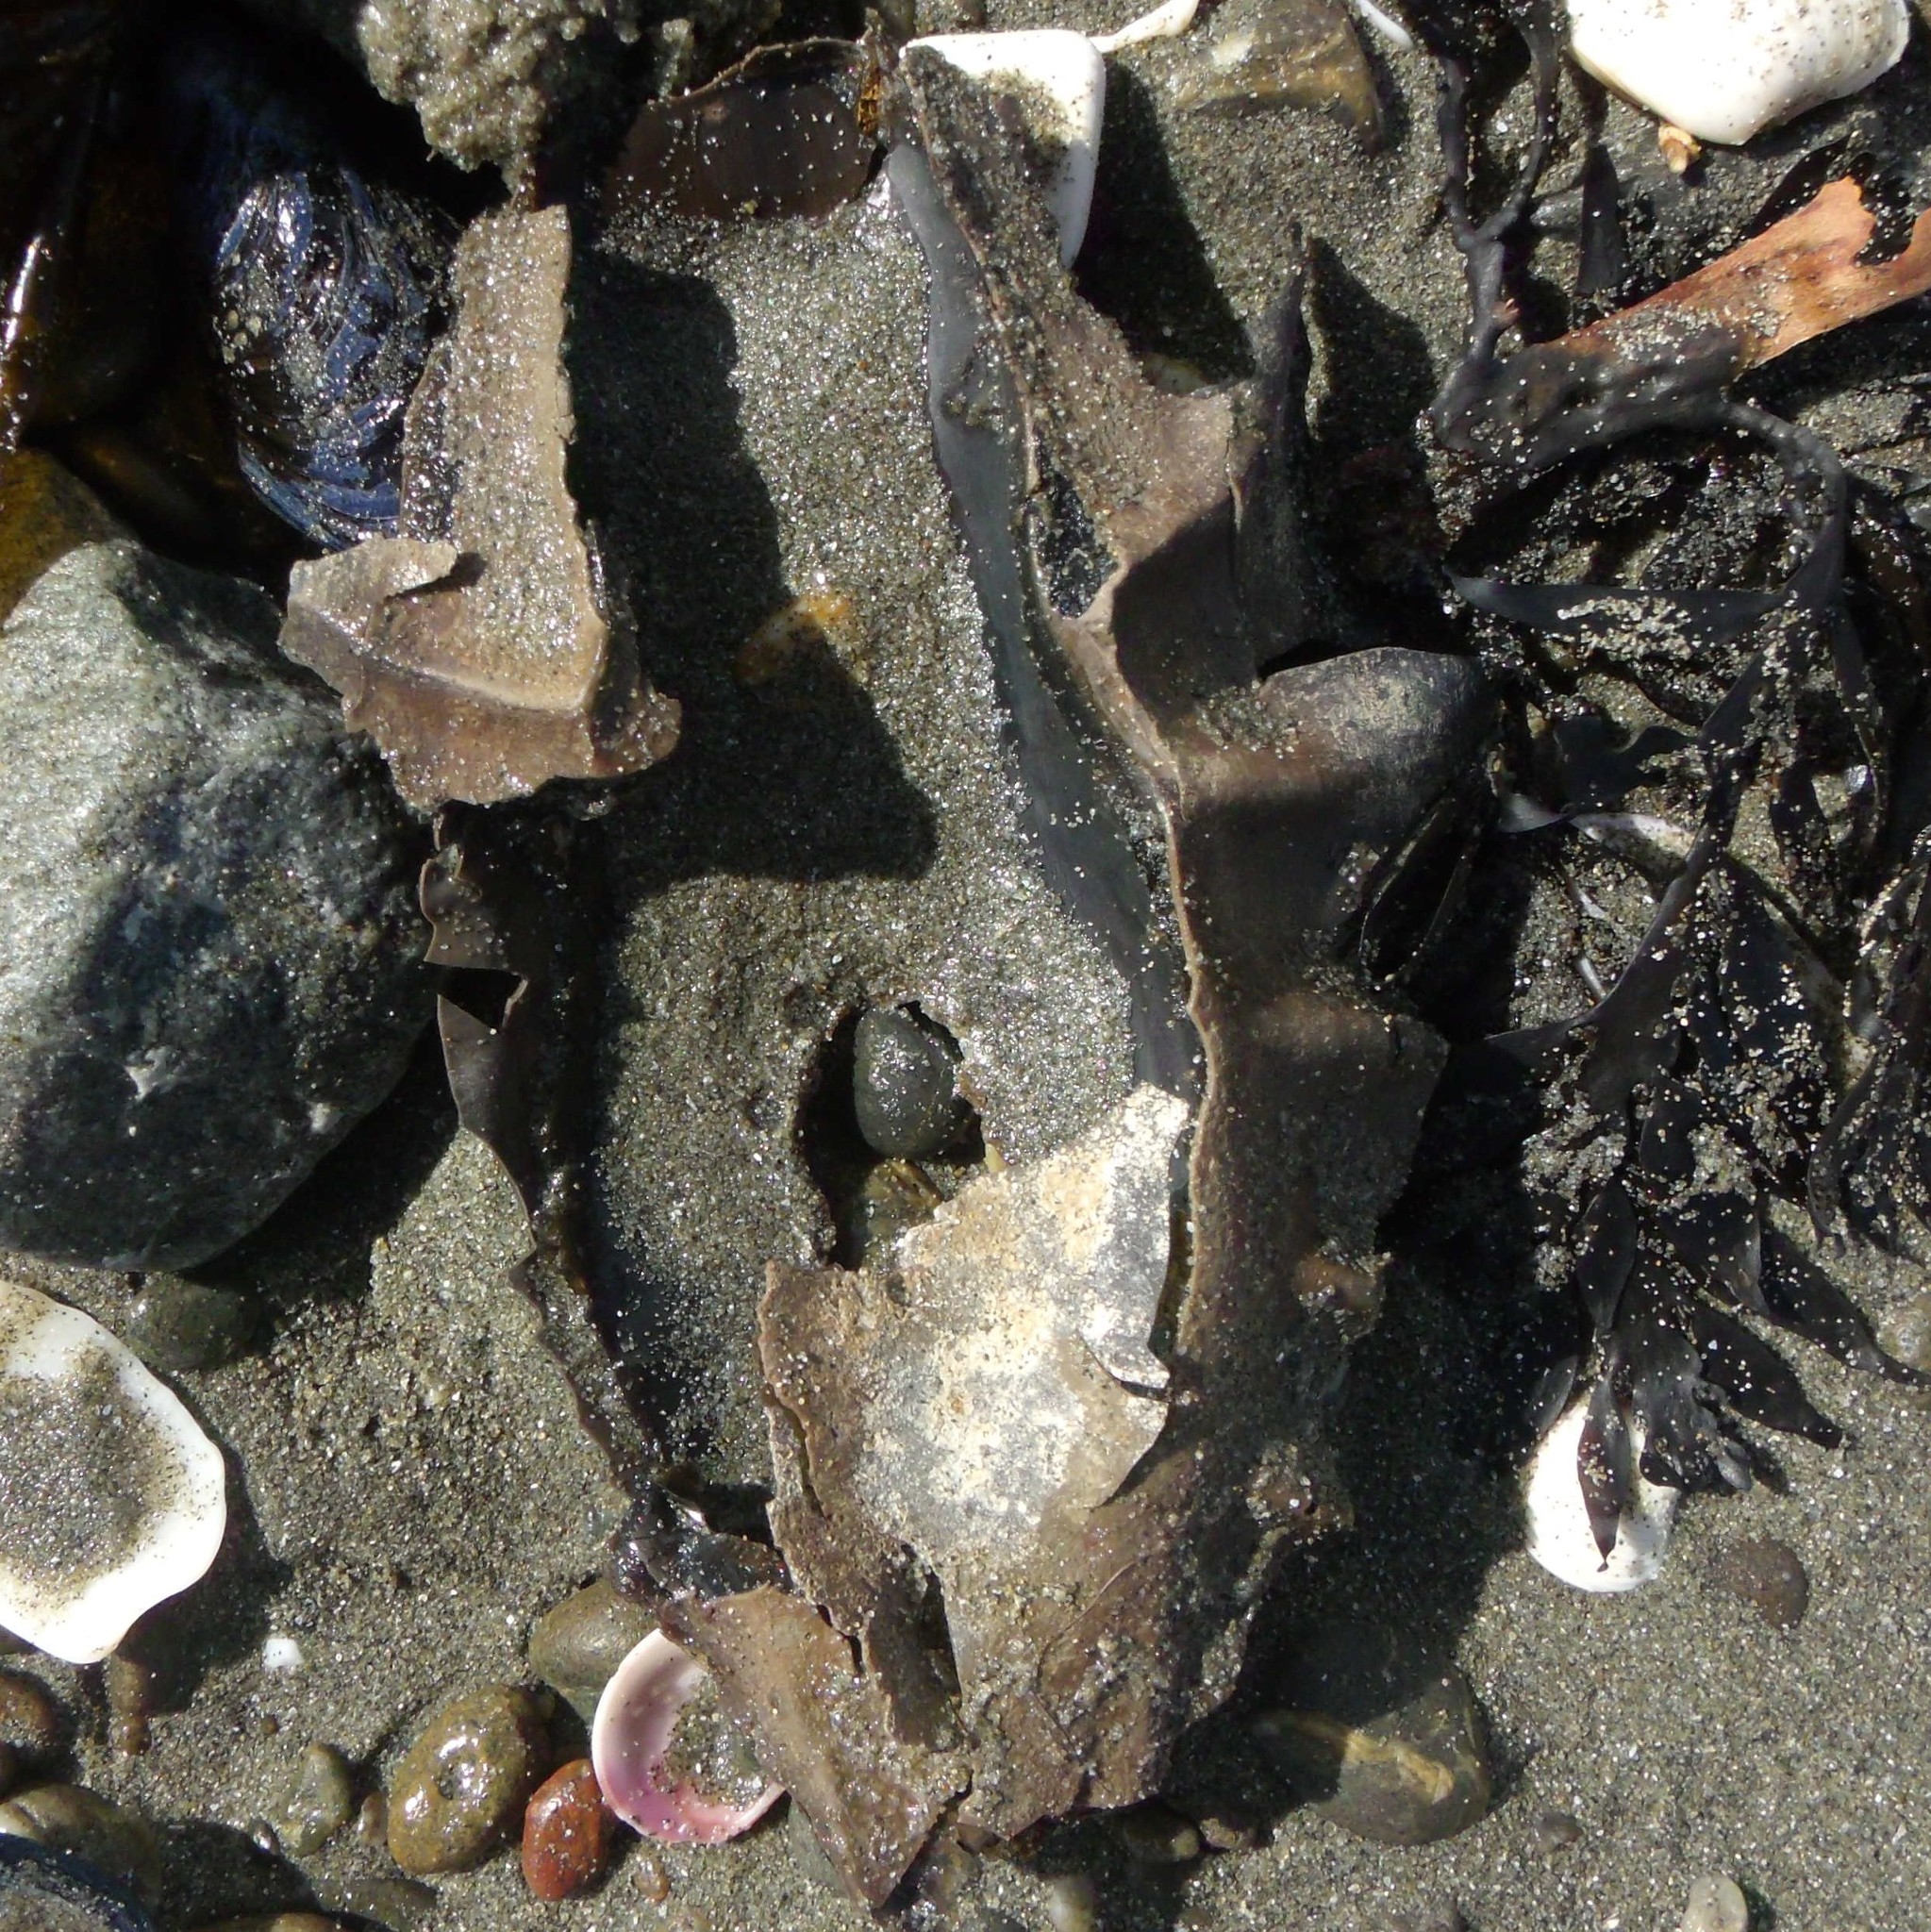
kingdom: Animalia
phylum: Chordata
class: Holocephali
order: Chimaeriformes
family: Callorhinchidae
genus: Callorhinchus
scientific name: Callorhinchus milii
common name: Elephant fish
